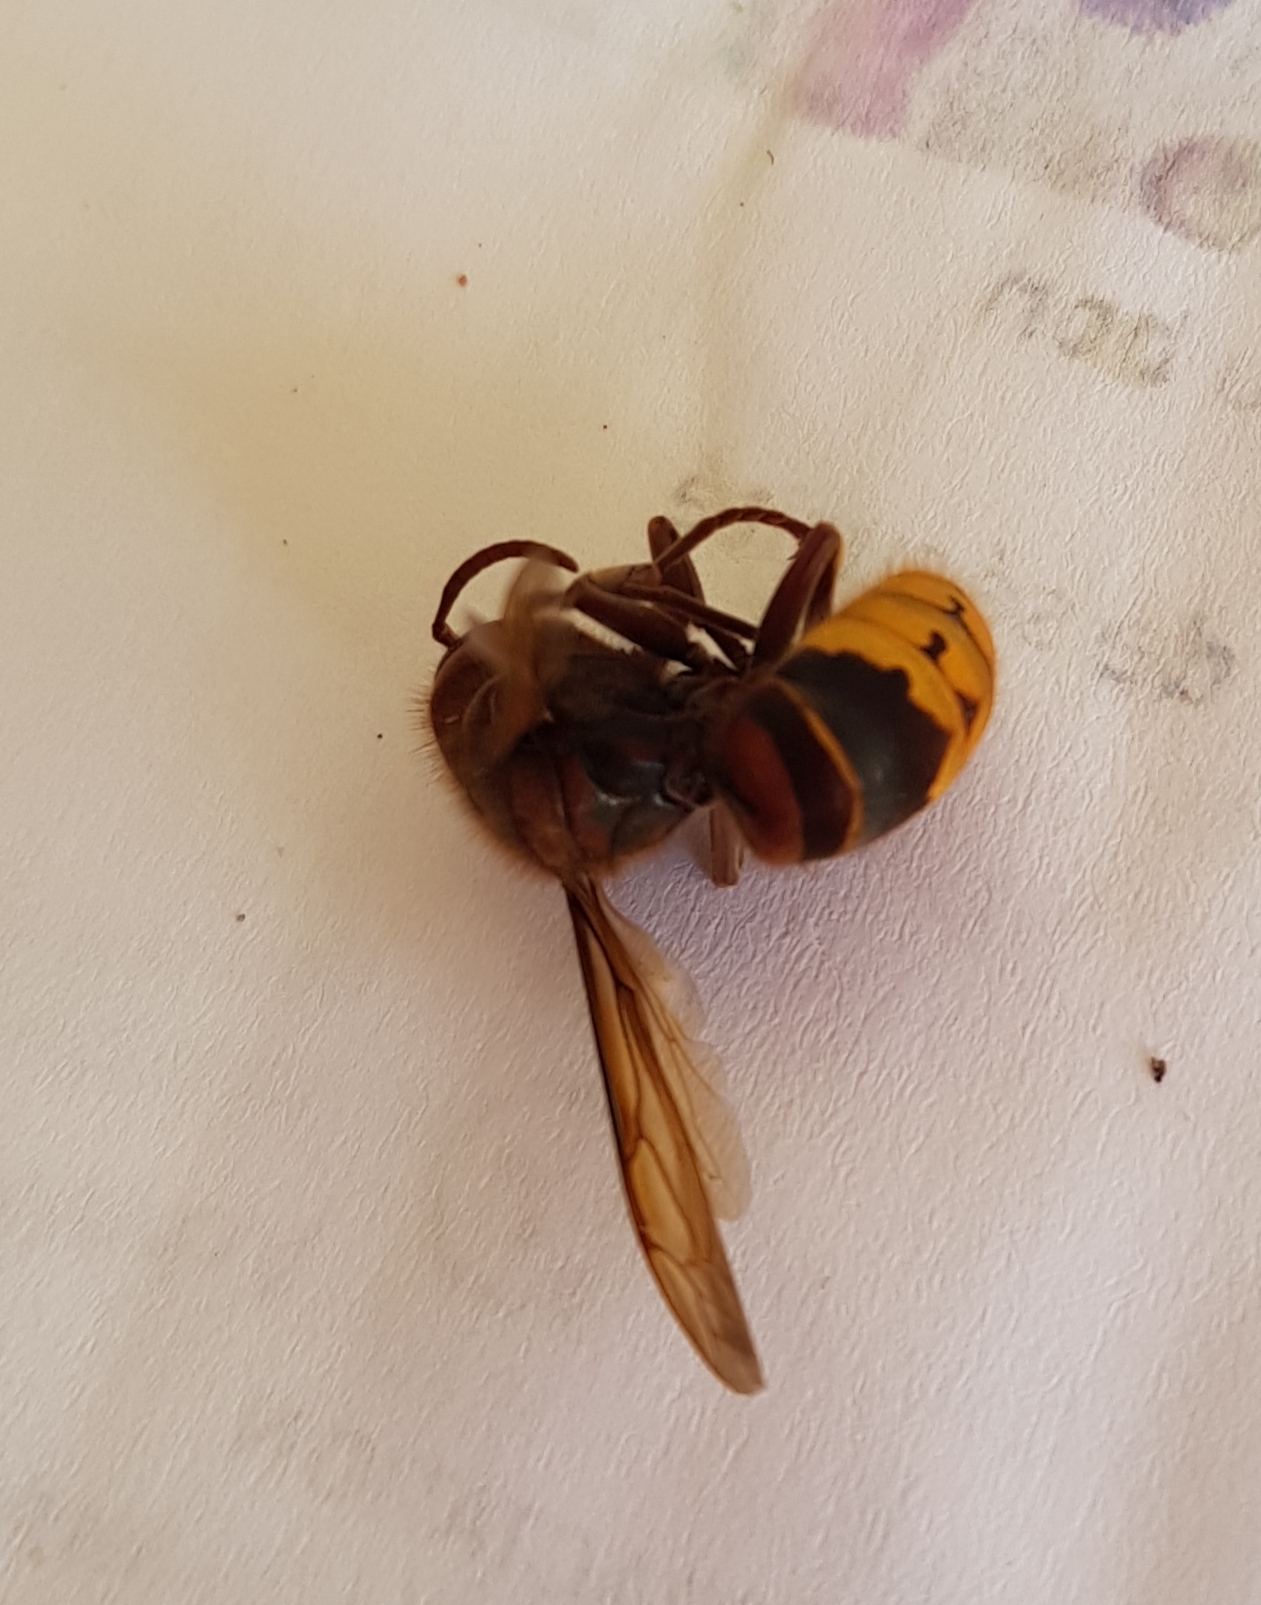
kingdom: Animalia
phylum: Arthropoda
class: Insecta
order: Hymenoptera
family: Vespidae
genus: Vespa
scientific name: Vespa crabro
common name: Hornet
